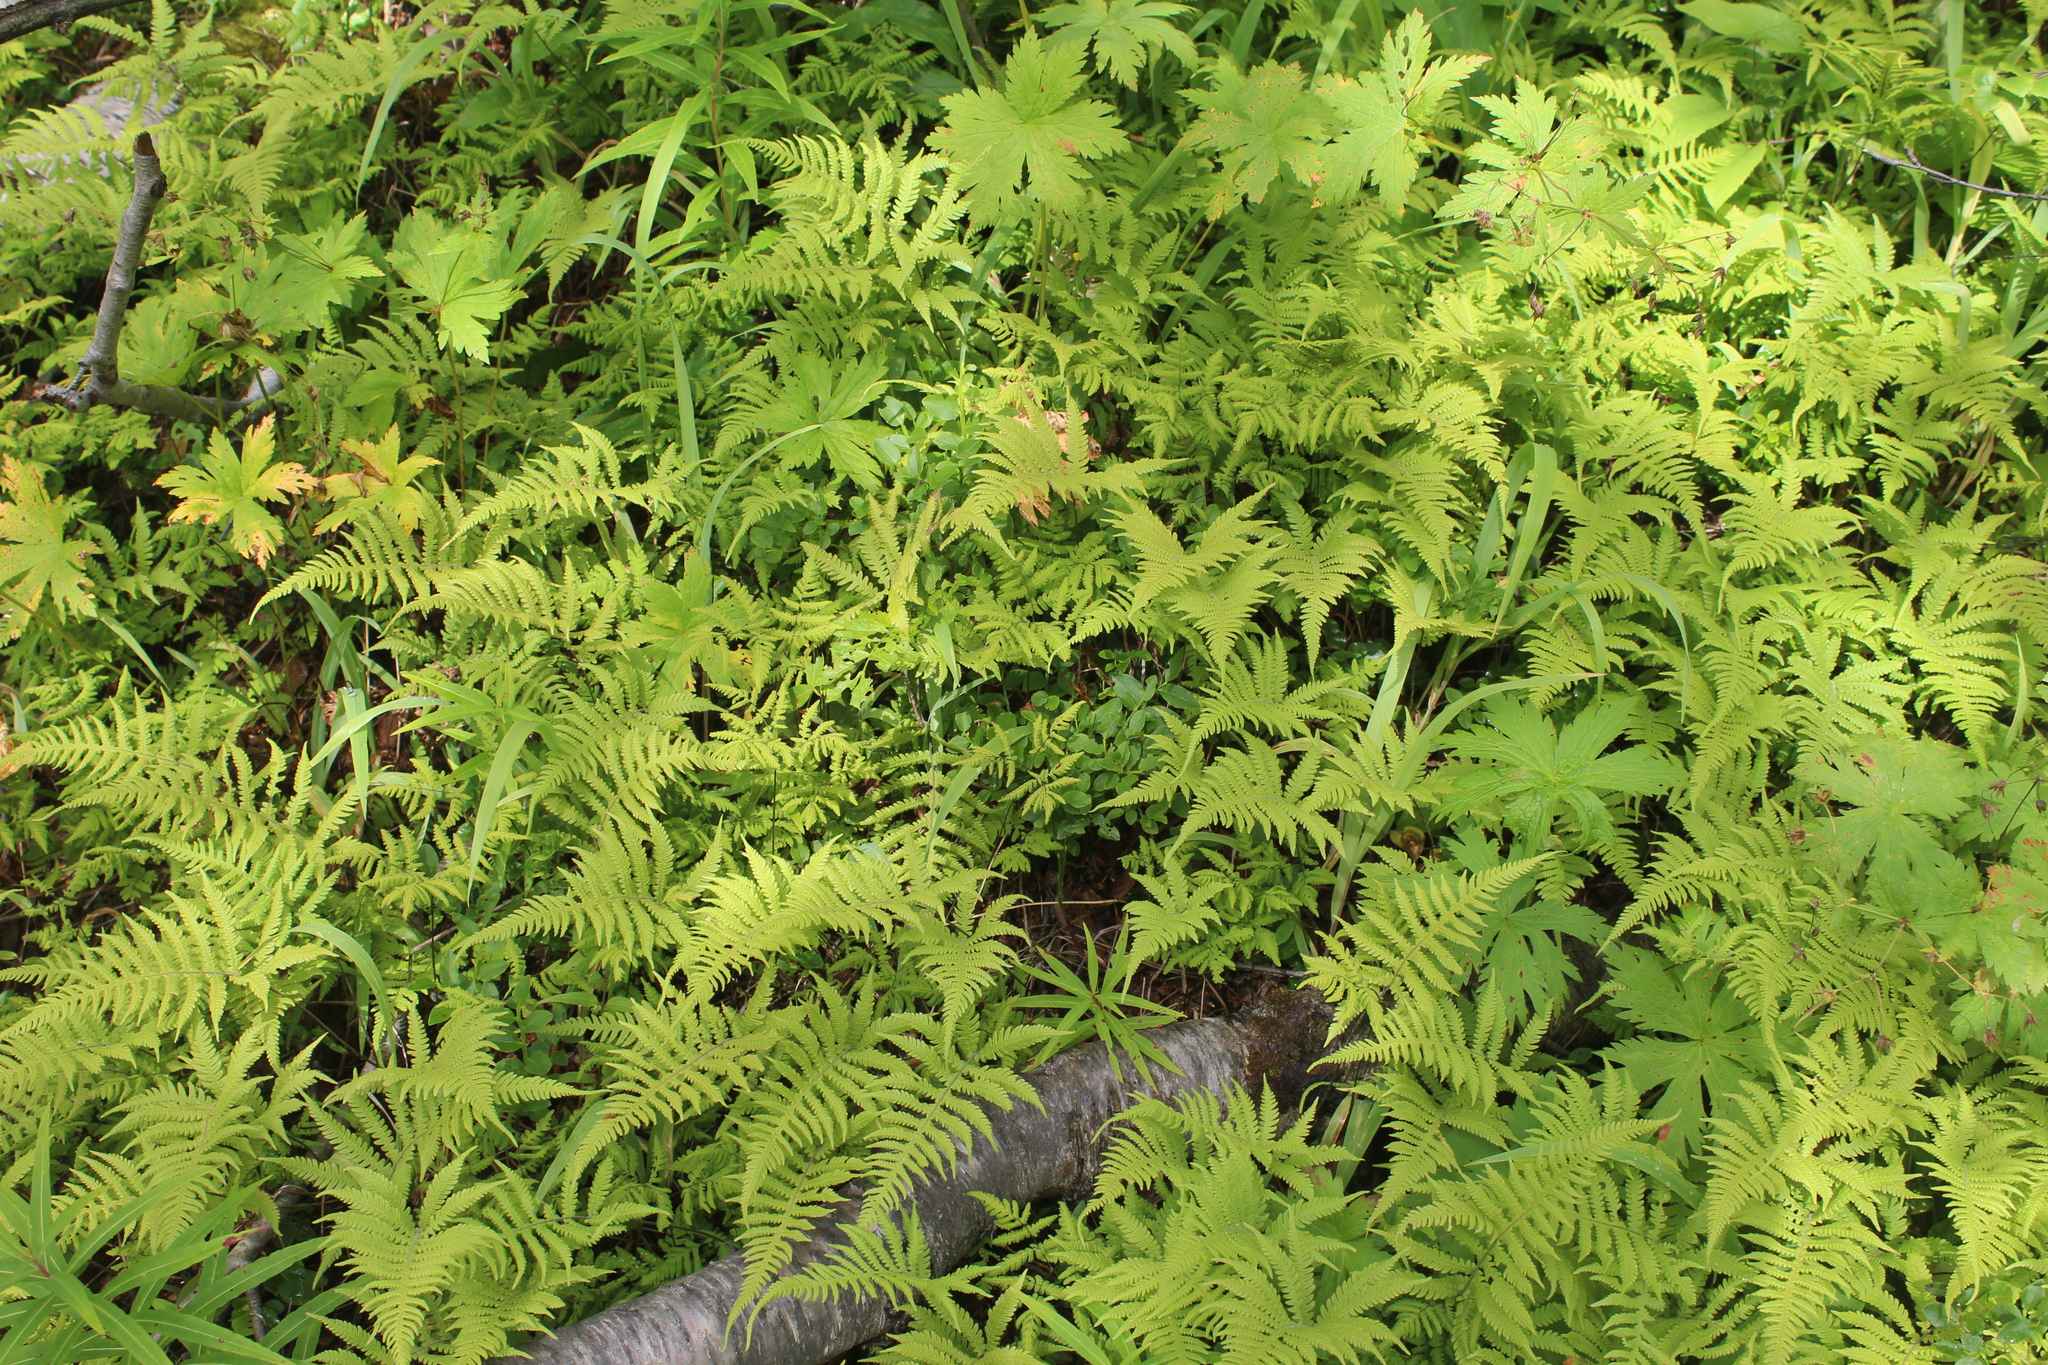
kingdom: Plantae
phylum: Tracheophyta
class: Polypodiopsida
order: Polypodiales
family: Thelypteridaceae
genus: Phegopteris
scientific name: Phegopteris connectilis
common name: Beech fern
